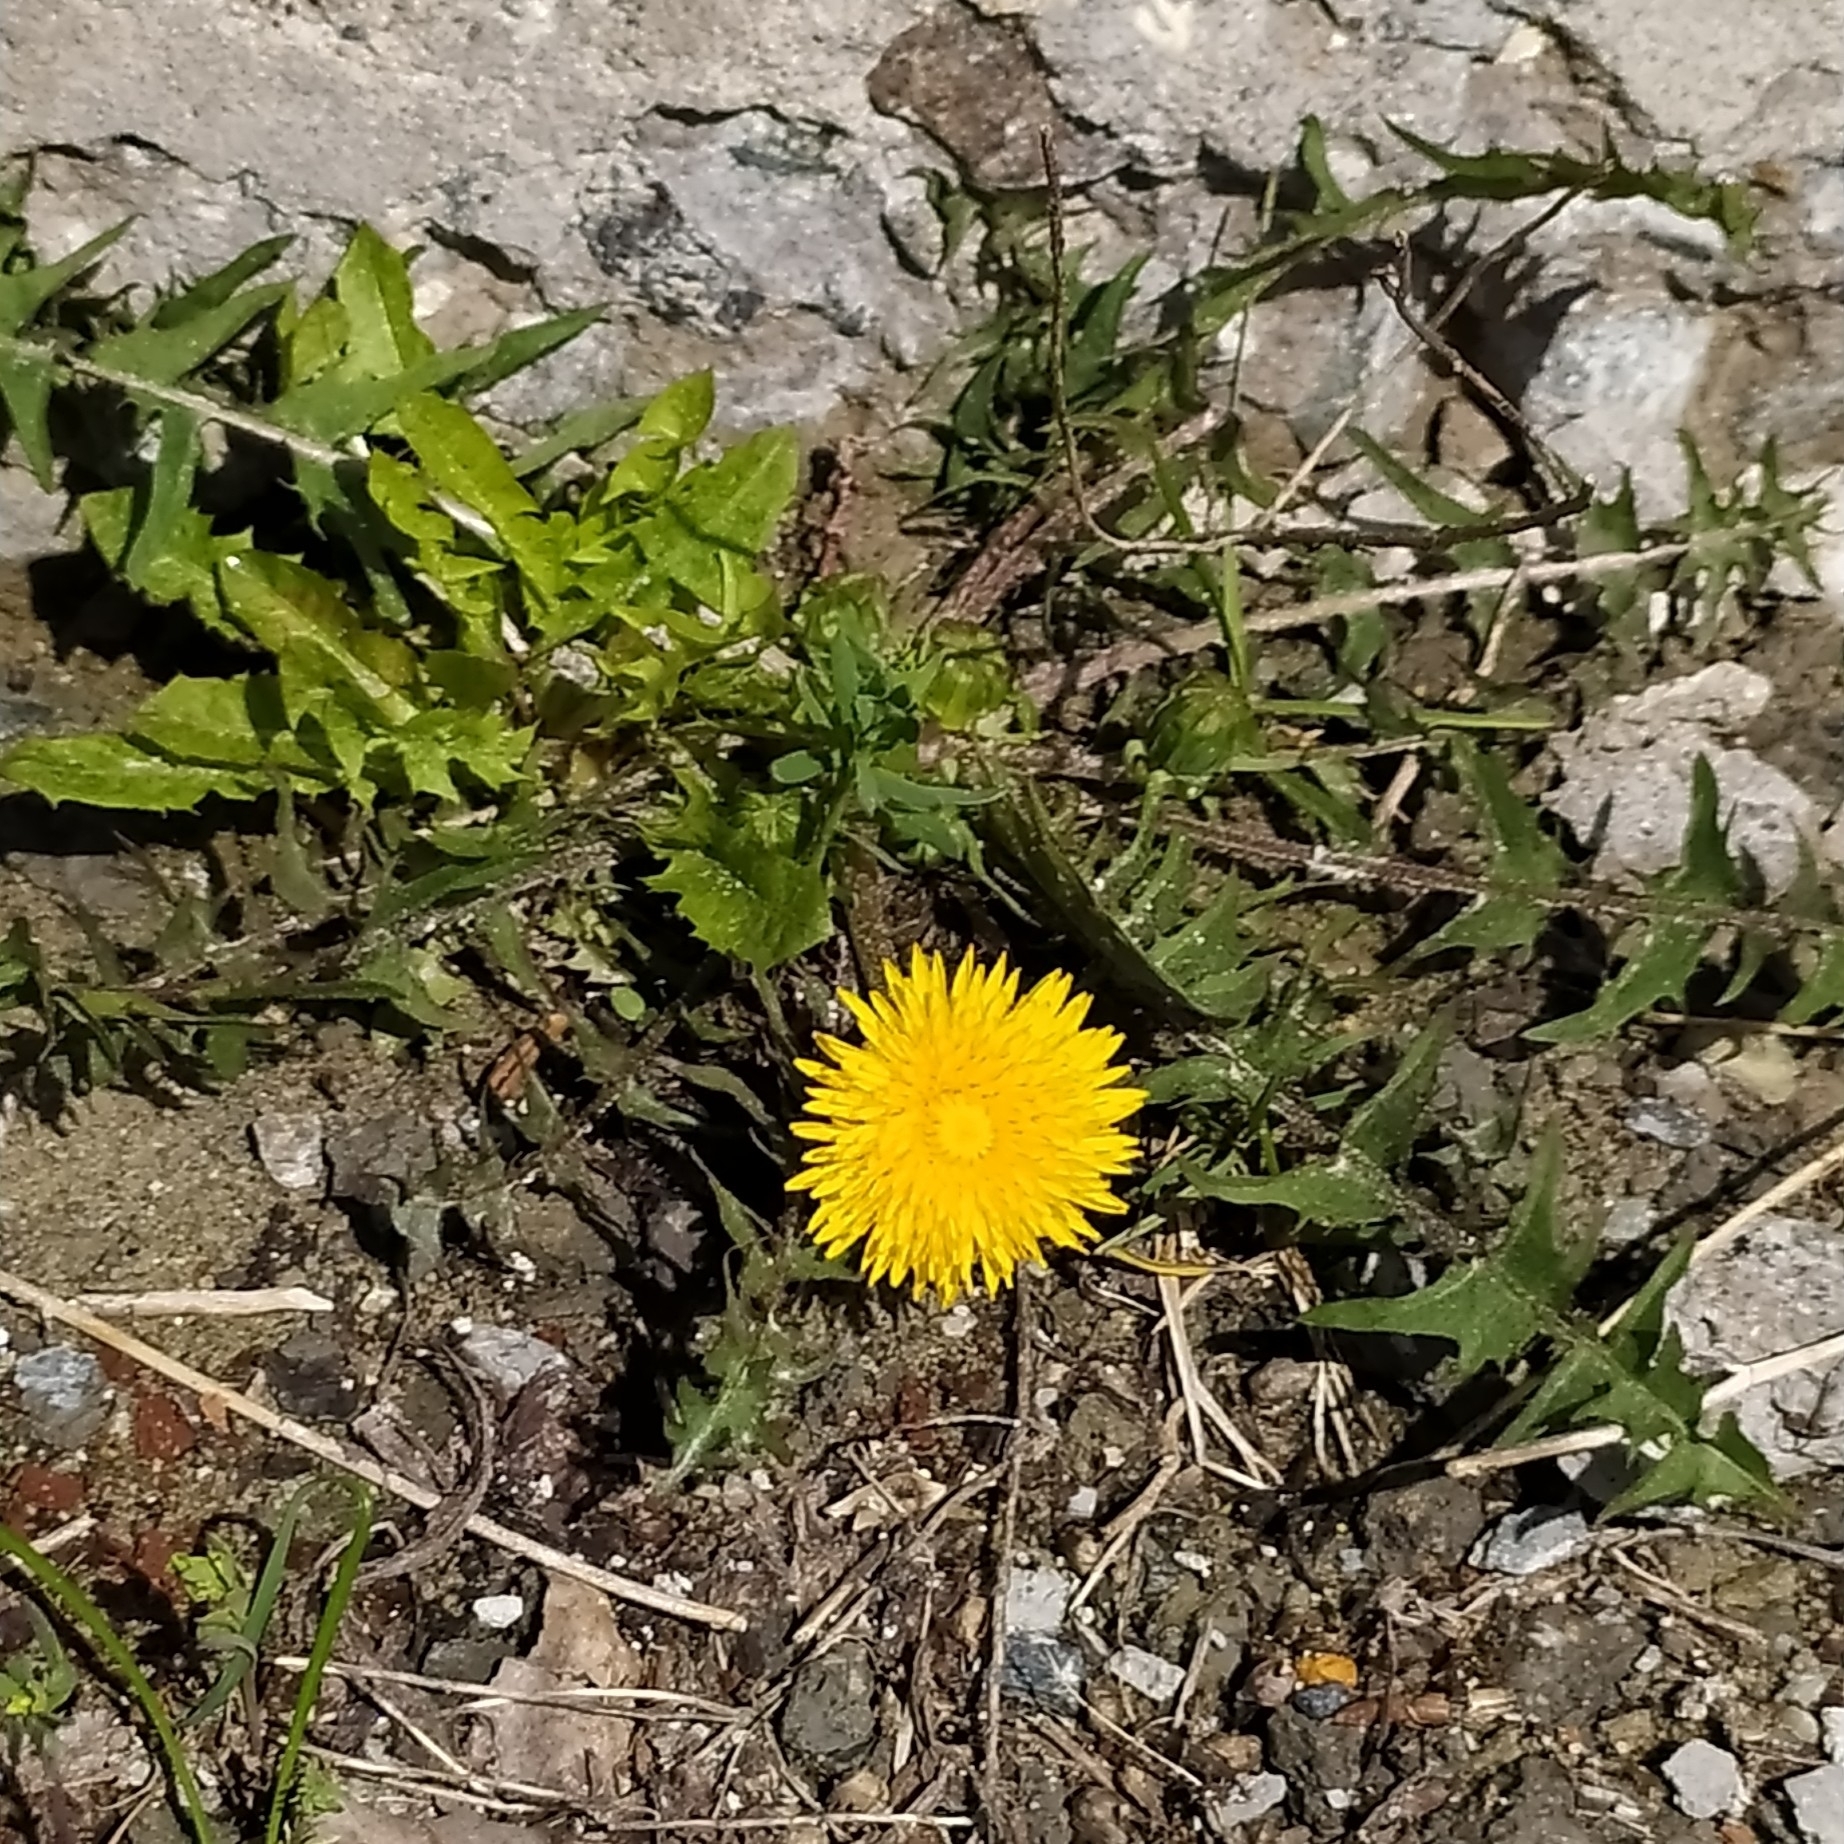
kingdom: Plantae
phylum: Tracheophyta
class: Magnoliopsida
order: Asterales
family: Asteraceae
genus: Taraxacum
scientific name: Taraxacum officinale
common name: Common dandelion
